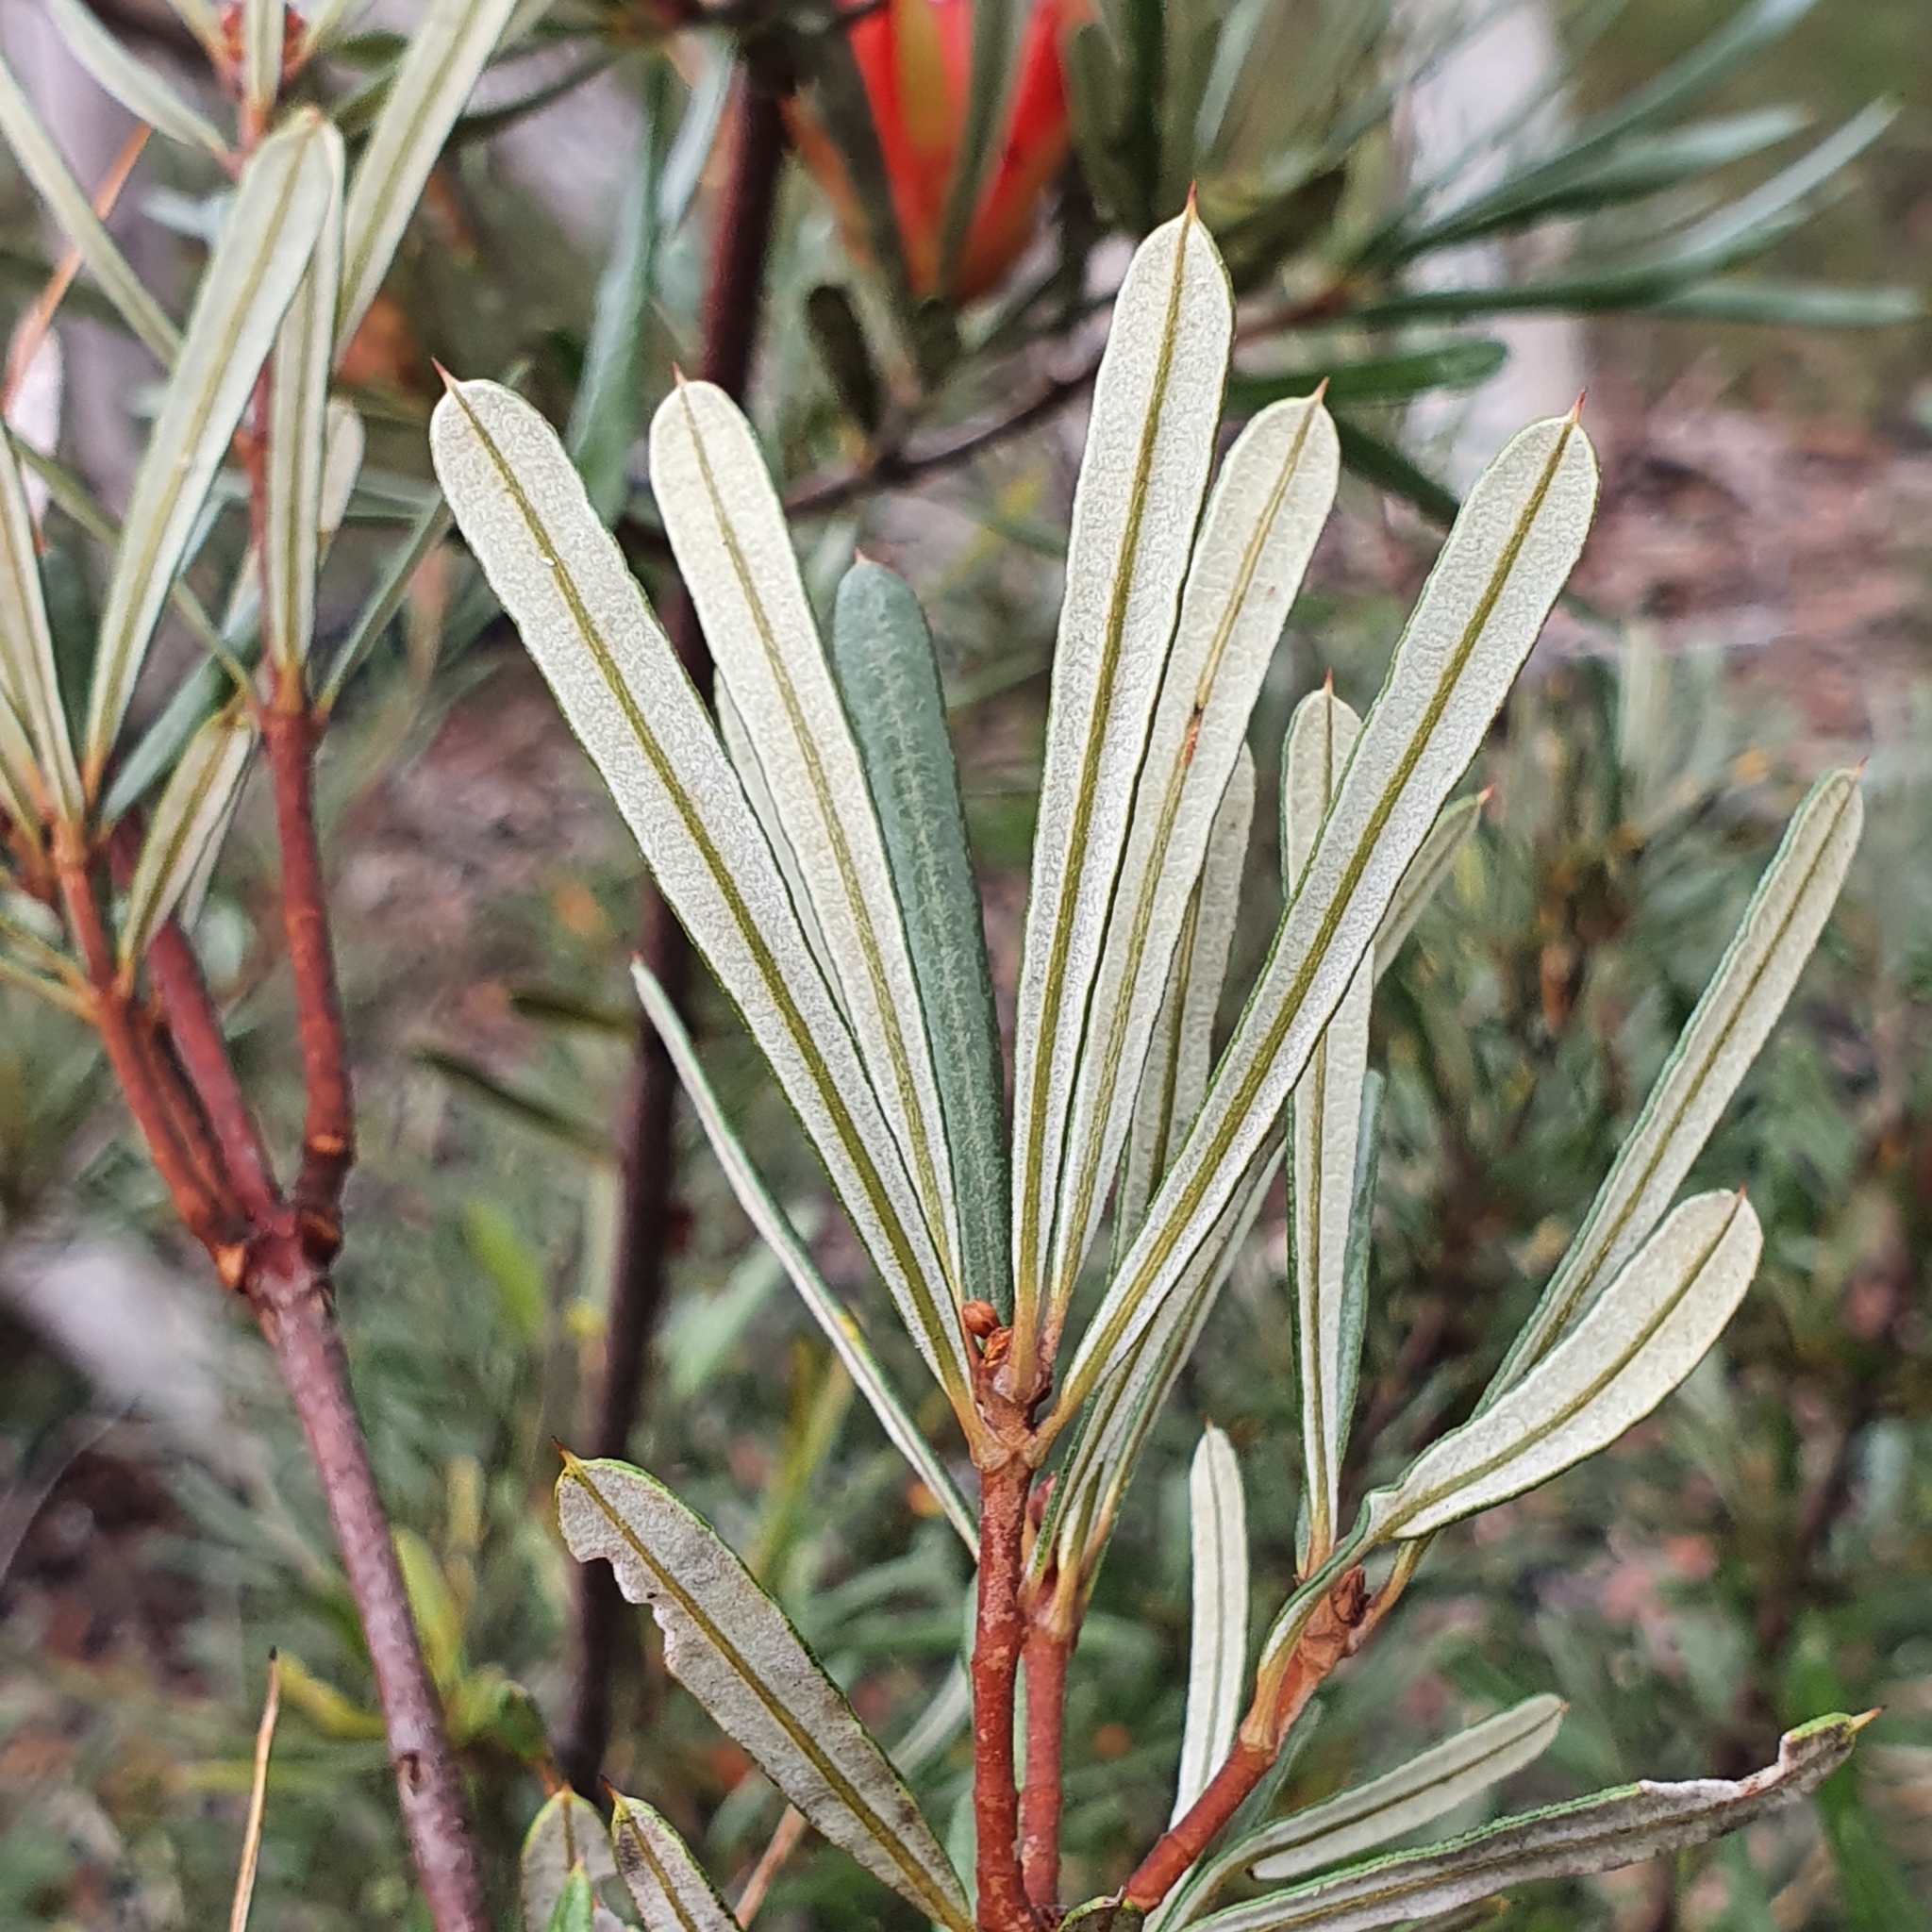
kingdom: Plantae
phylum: Tracheophyta
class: Magnoliopsida
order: Proteales
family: Proteaceae
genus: Lambertia
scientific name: Lambertia formosa
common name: Mountain-devil
